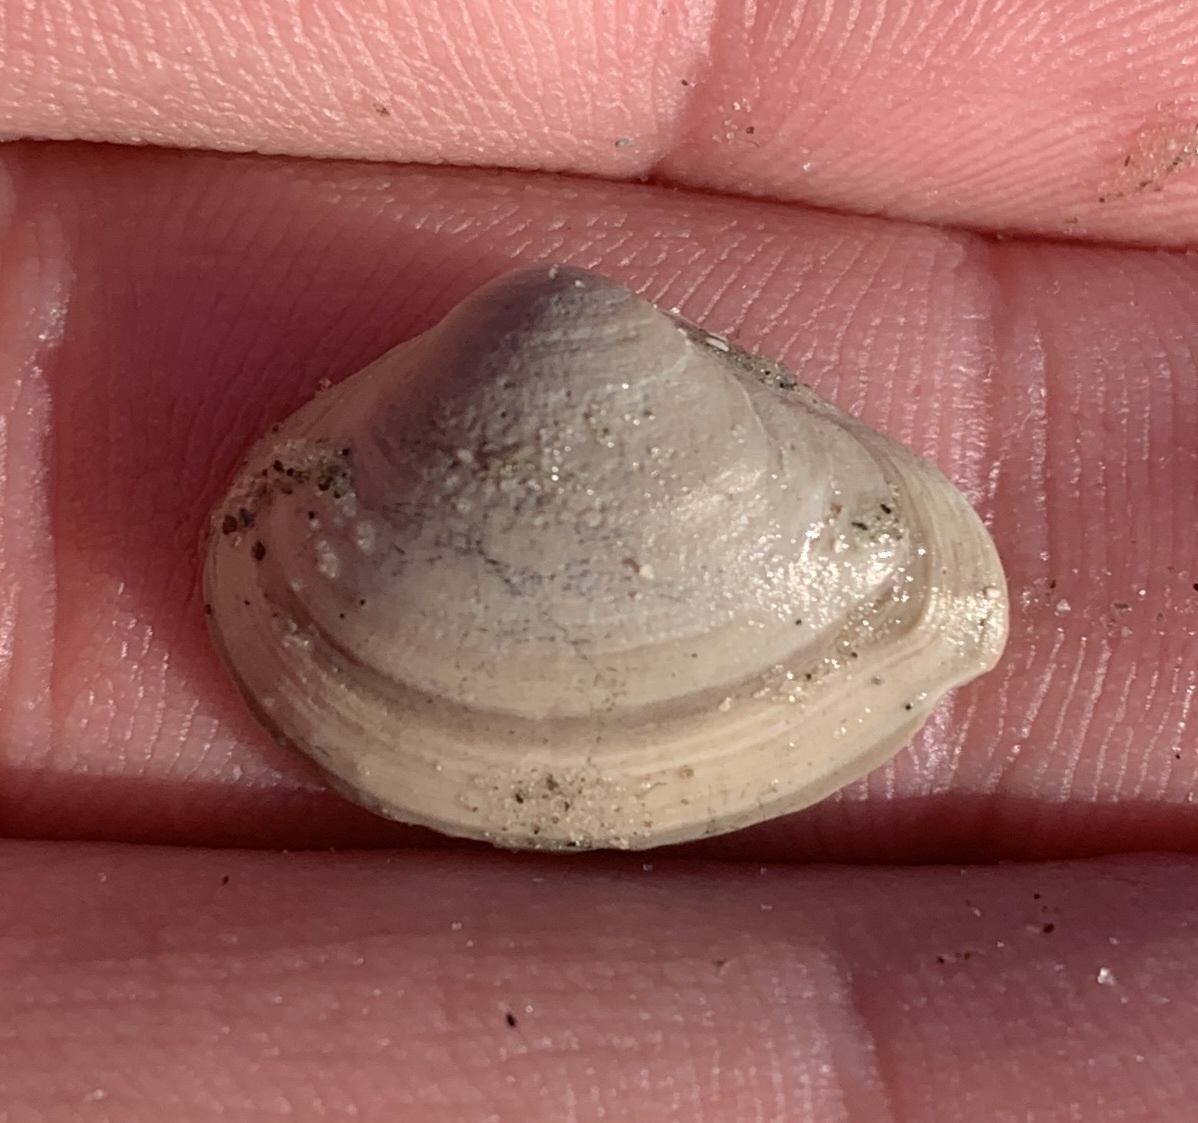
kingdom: Animalia
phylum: Mollusca
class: Bivalvia
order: Venerida
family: Mactridae
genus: Mulinia
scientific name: Mulinia lateralis
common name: Dwarf surfclam
